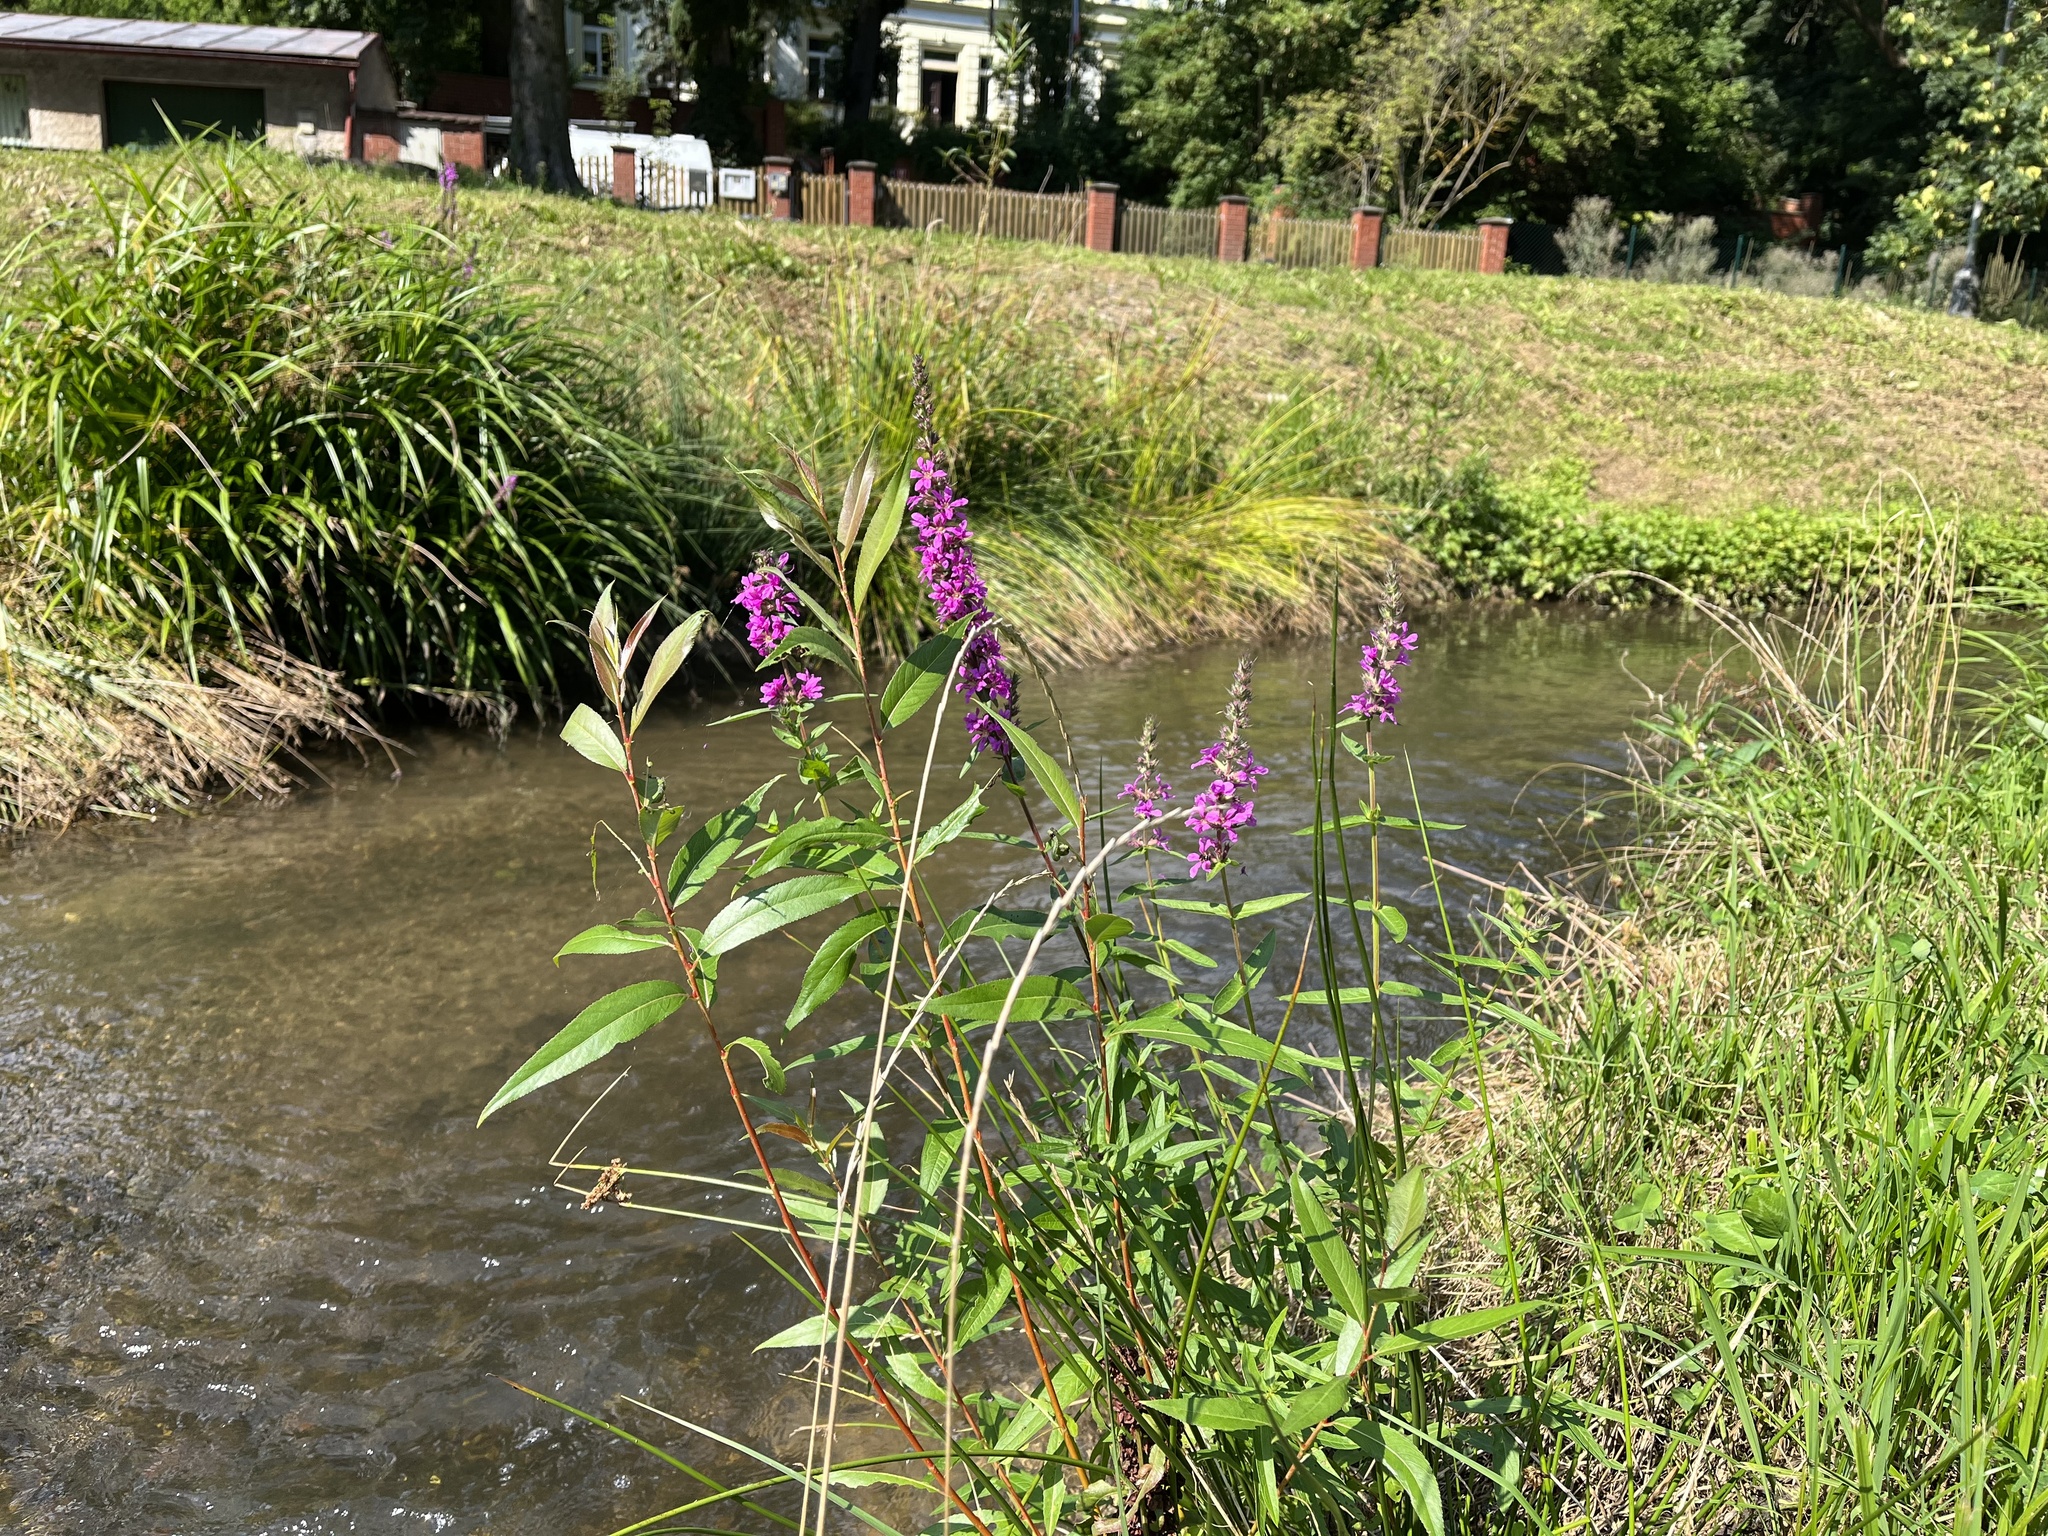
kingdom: Plantae
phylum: Tracheophyta
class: Magnoliopsida
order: Myrtales
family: Lythraceae
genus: Lythrum
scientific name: Lythrum salicaria
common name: Purple loosestrife
